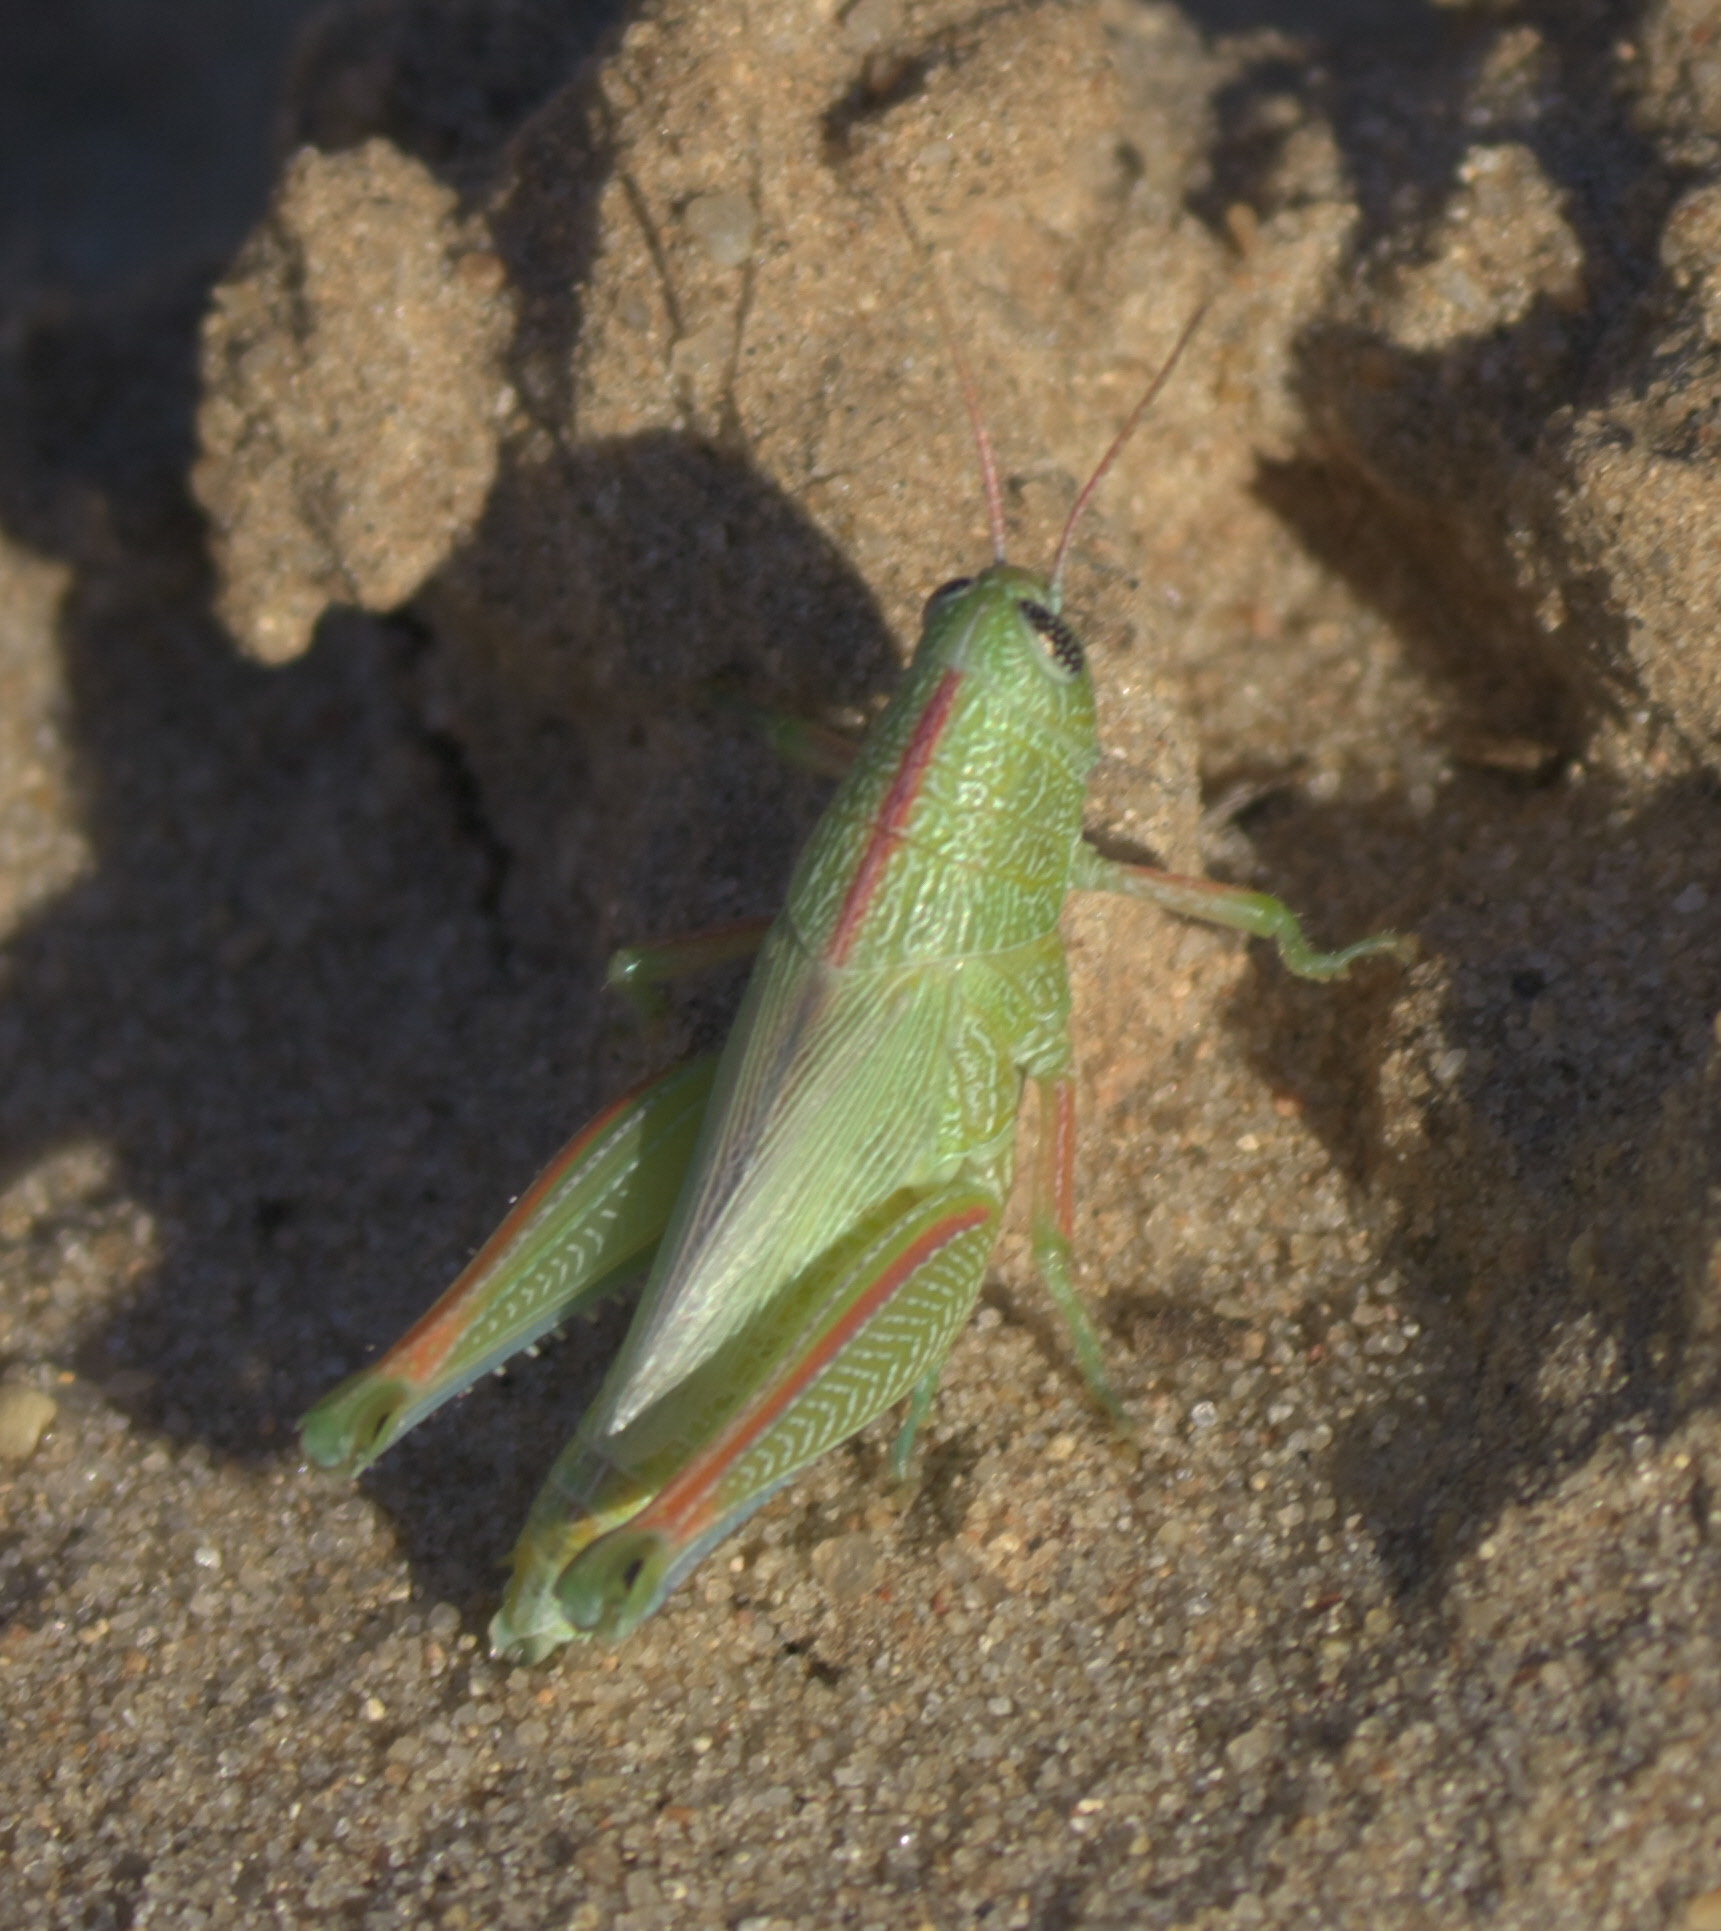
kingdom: Animalia
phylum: Arthropoda
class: Insecta
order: Orthoptera
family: Acrididae
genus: Hesperotettix
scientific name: Hesperotettix speciosus
